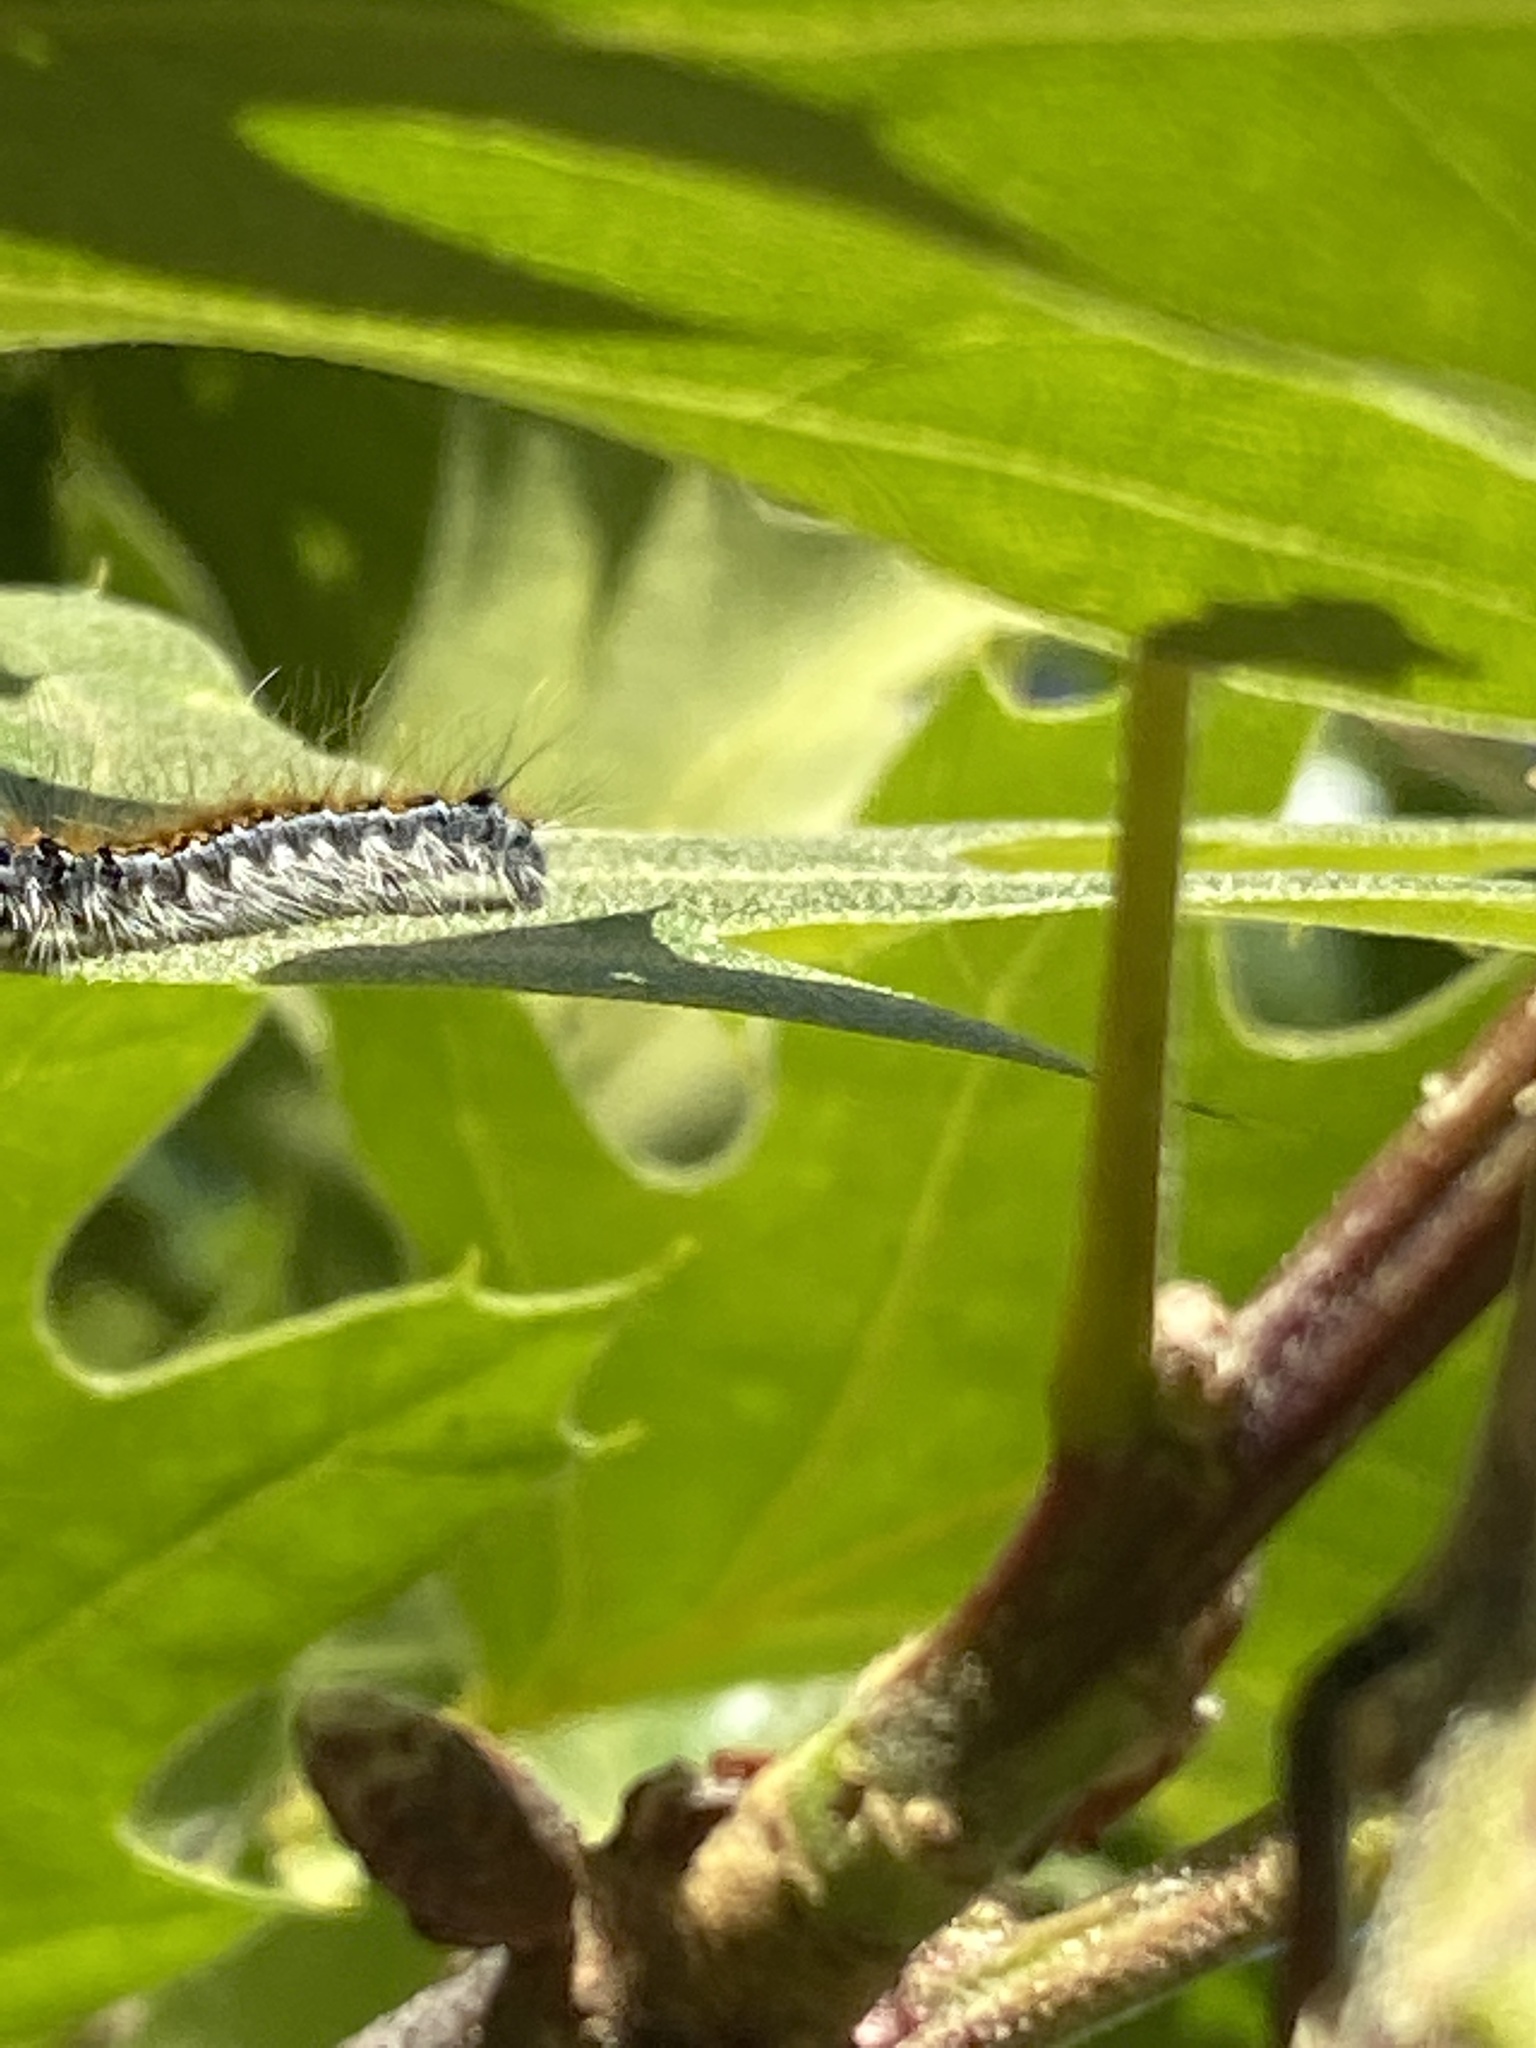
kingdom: Animalia
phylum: Arthropoda
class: Insecta
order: Lepidoptera
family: Lasiocampidae
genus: Malacosoma
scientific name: Malacosoma constricta
